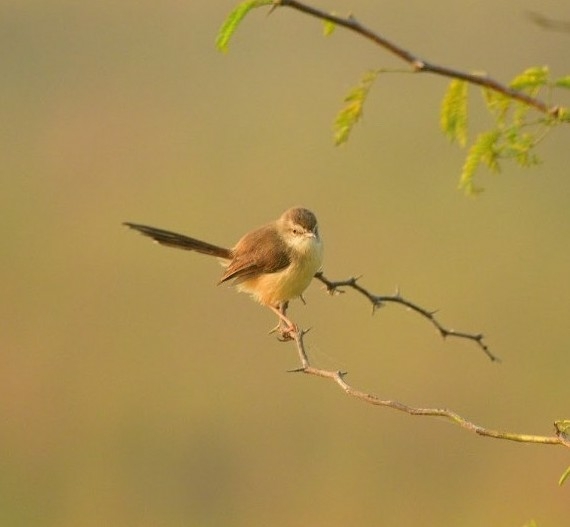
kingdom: Animalia
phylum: Chordata
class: Aves
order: Passeriformes
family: Cisticolidae
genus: Prinia
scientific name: Prinia inornata
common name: Plain prinia
